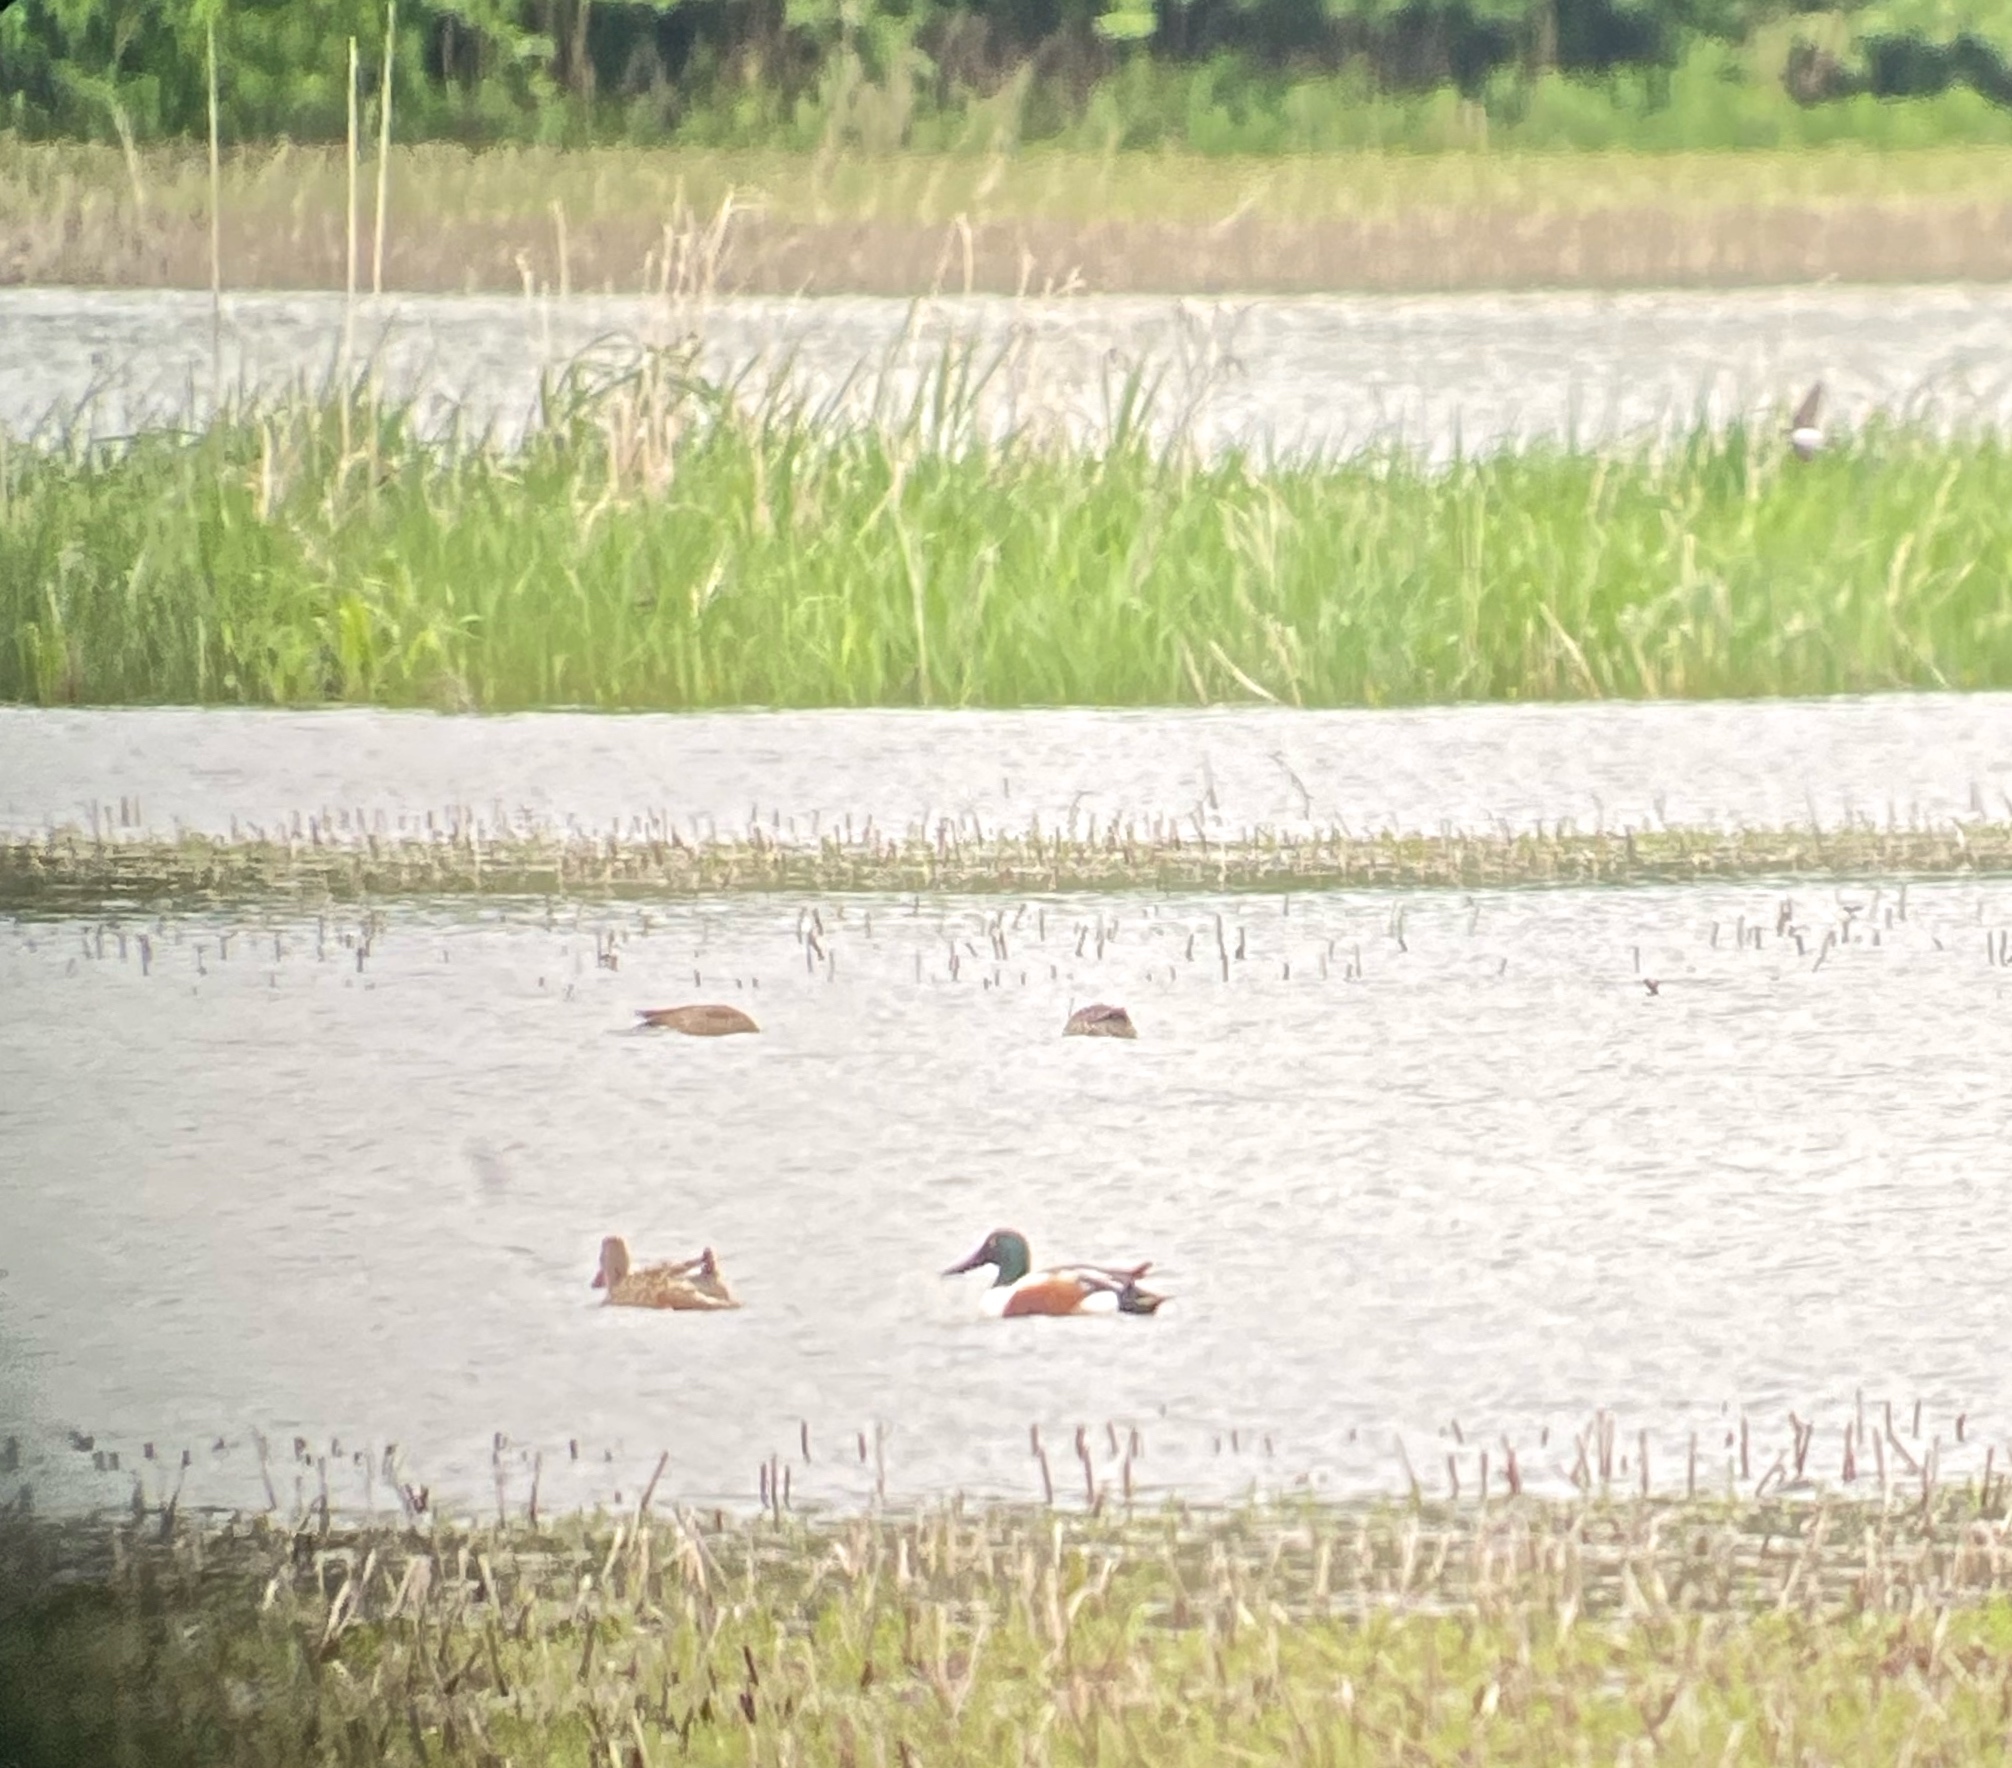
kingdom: Animalia
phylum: Chordata
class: Aves
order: Anseriformes
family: Anatidae
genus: Spatula
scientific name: Spatula clypeata
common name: Northern shoveler
